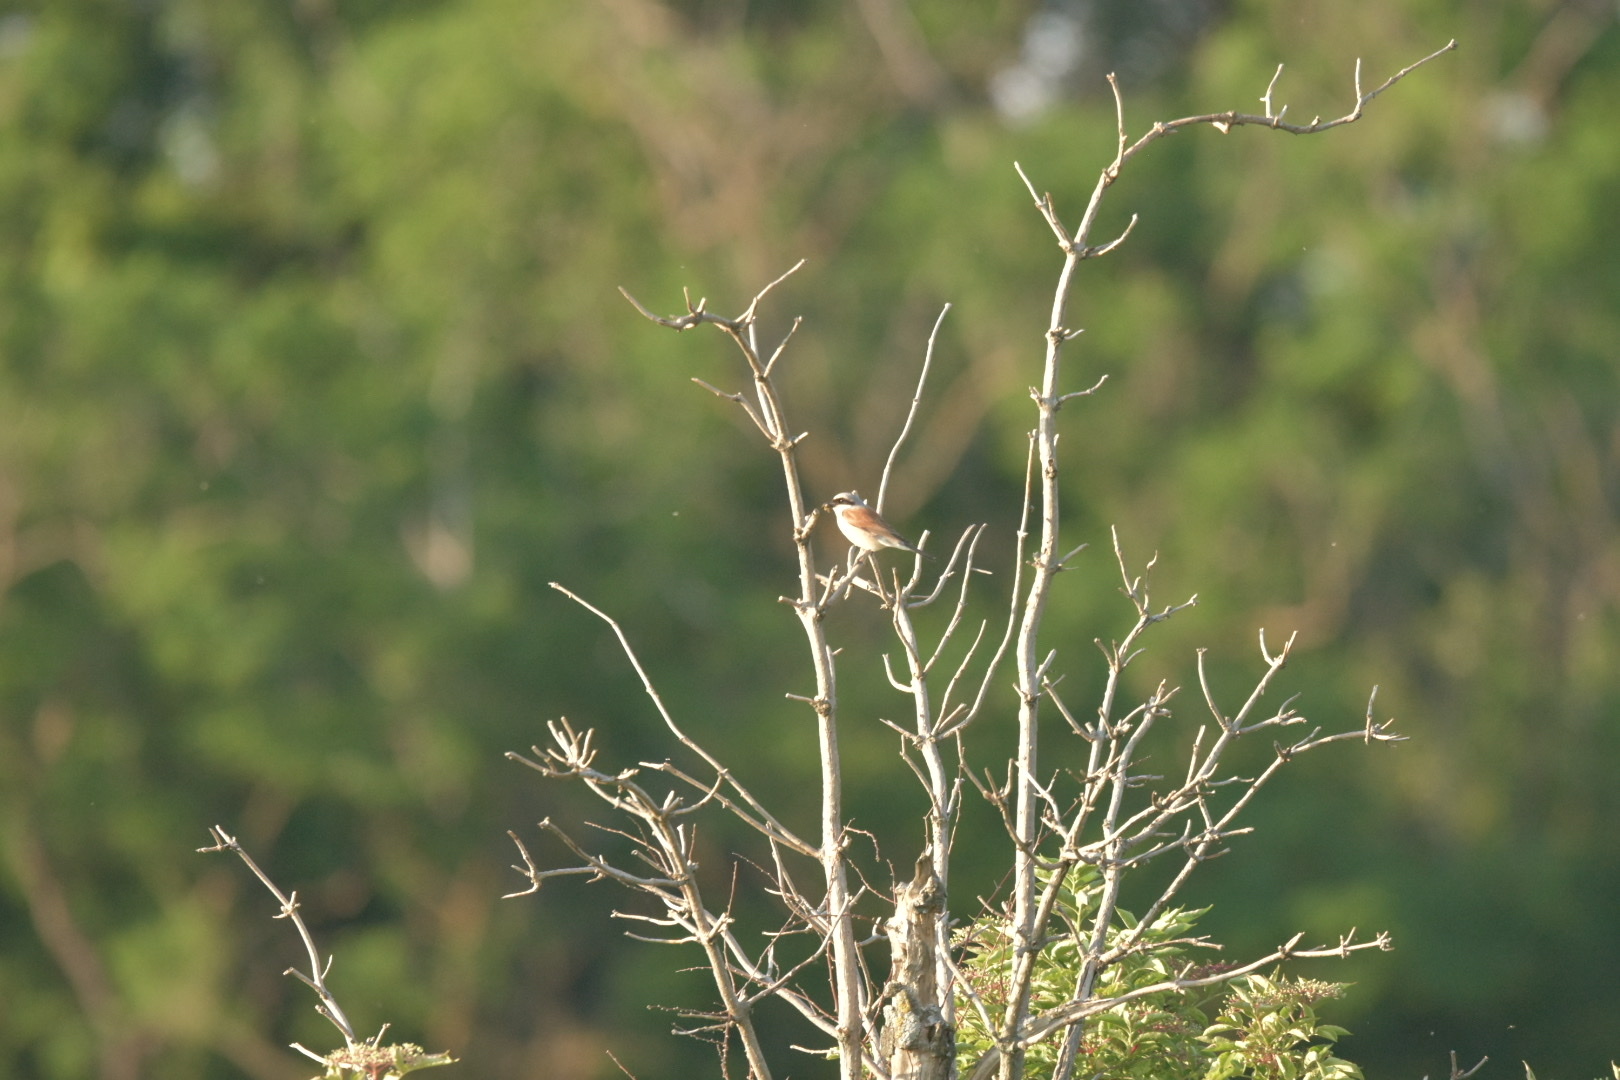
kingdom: Animalia
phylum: Chordata
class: Aves
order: Passeriformes
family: Laniidae
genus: Lanius
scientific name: Lanius collurio
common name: Red-backed shrike
